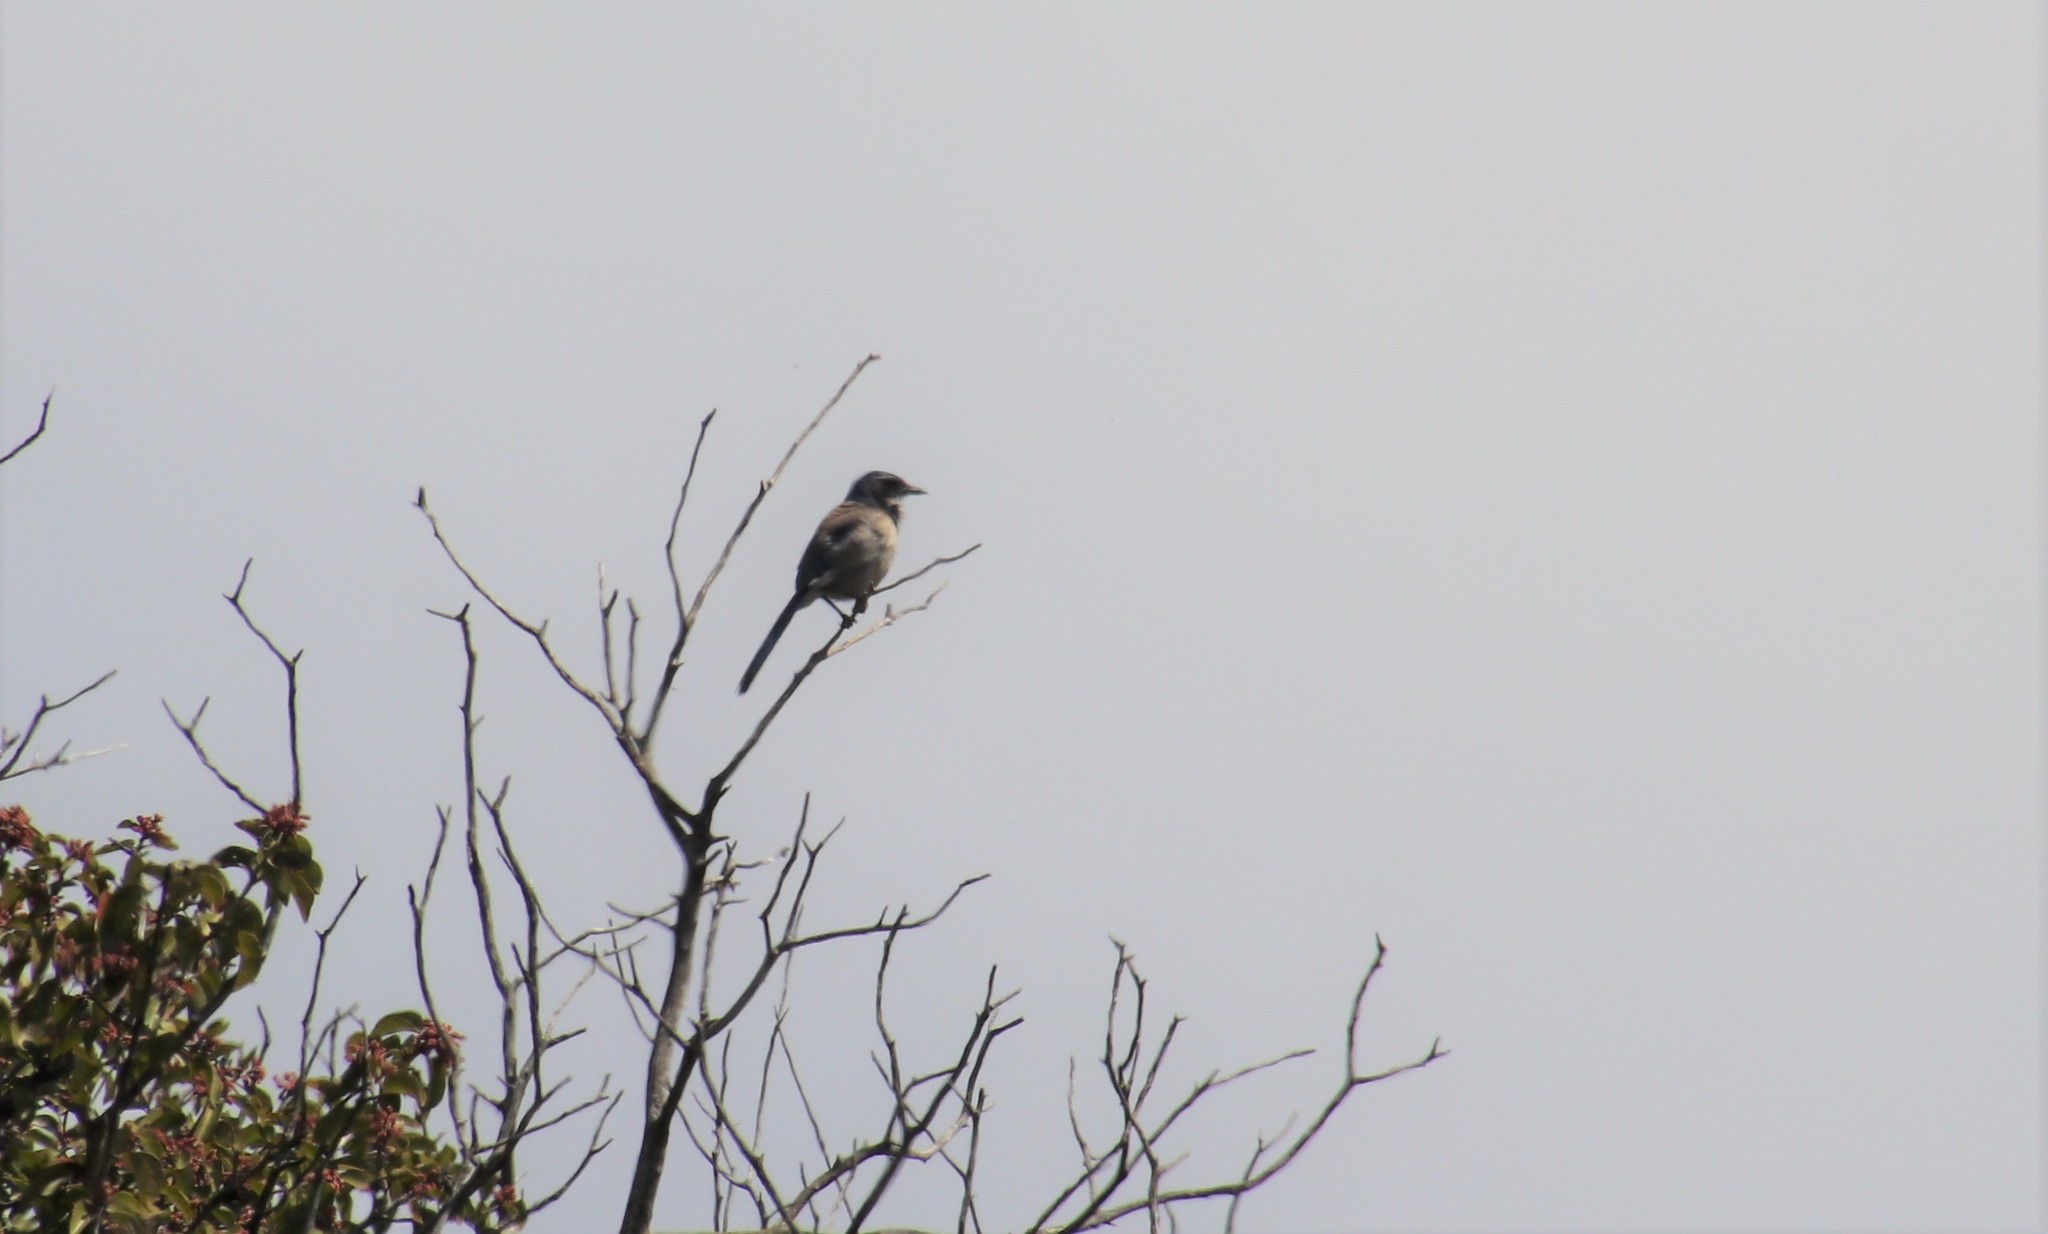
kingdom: Animalia
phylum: Chordata
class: Aves
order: Passeriformes
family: Corvidae
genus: Aphelocoma
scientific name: Aphelocoma californica
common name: California scrub-jay
